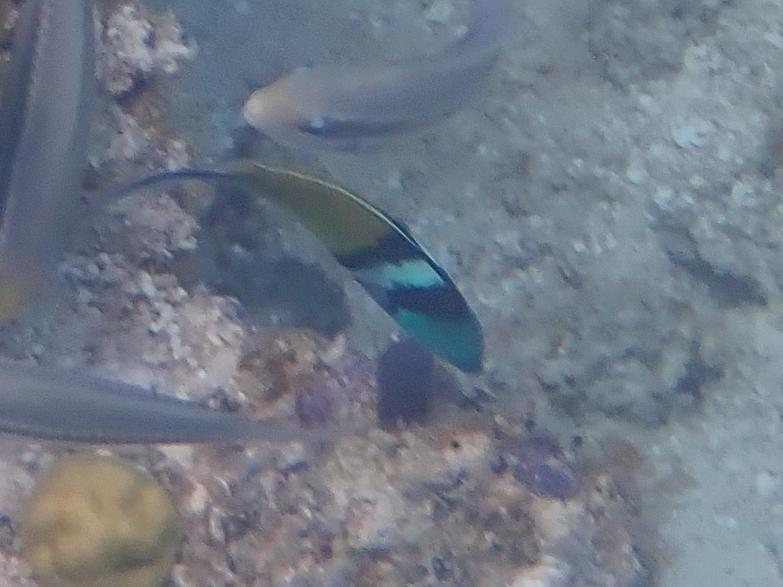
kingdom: Animalia
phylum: Chordata
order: Perciformes
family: Labridae
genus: Thalassoma
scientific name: Thalassoma bifasciatum
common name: Bluehead wrasse
